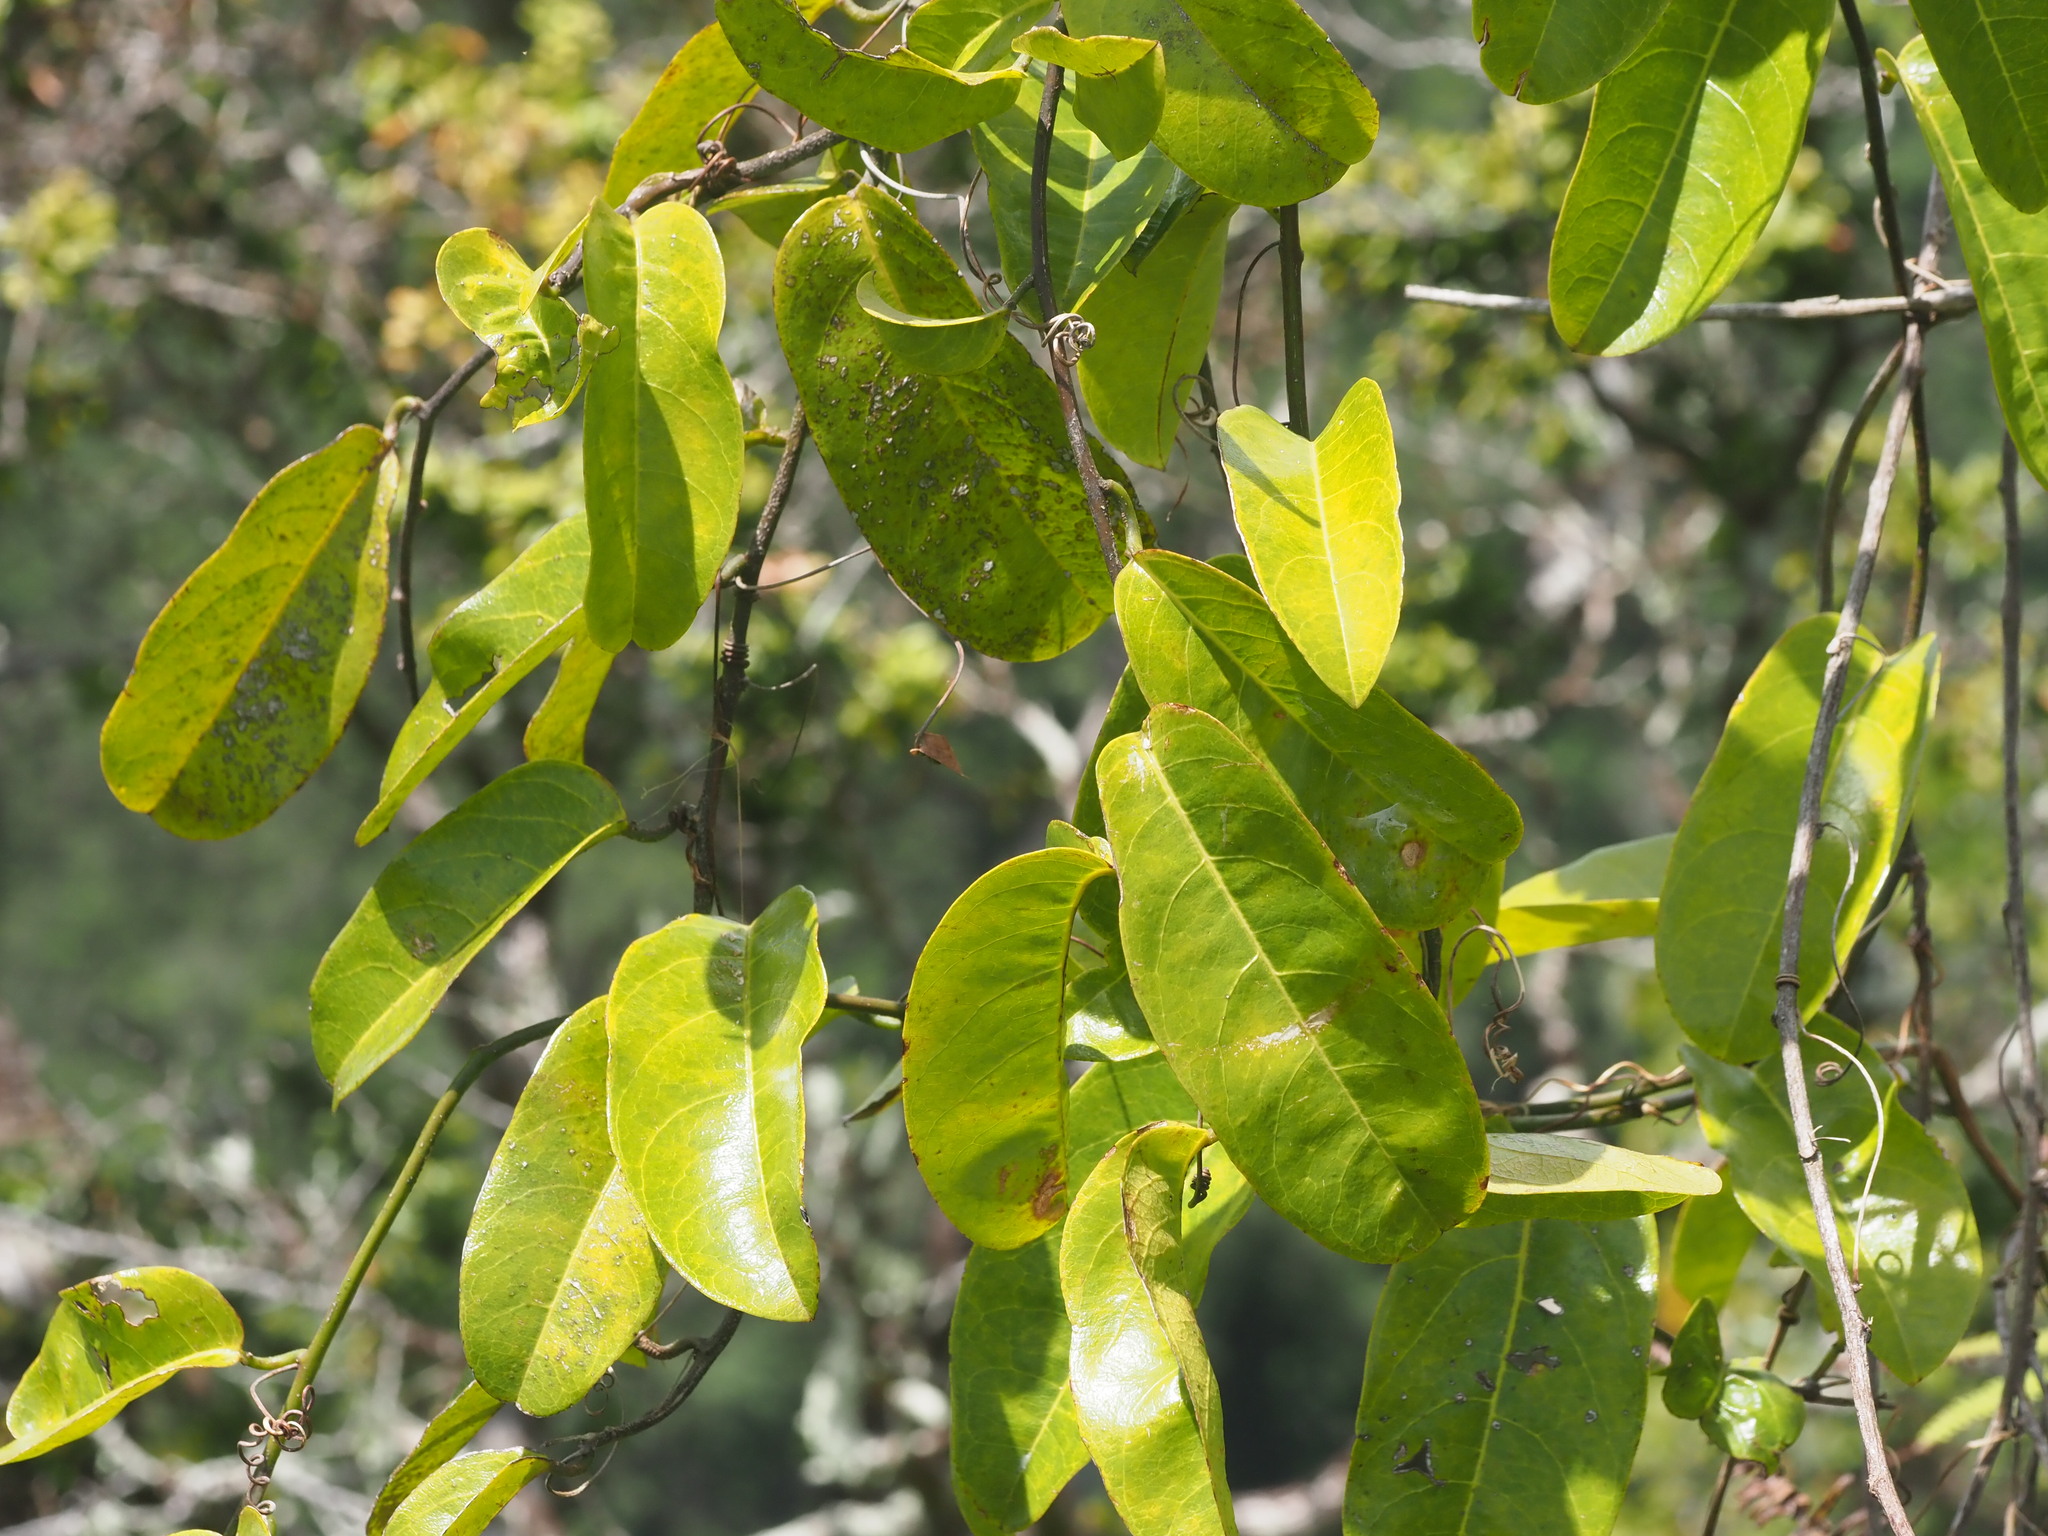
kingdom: Plantae
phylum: Tracheophyta
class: Magnoliopsida
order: Malpighiales
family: Passifloraceae
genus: Passiflora
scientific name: Passiflora laurifolia
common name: Bell apple
